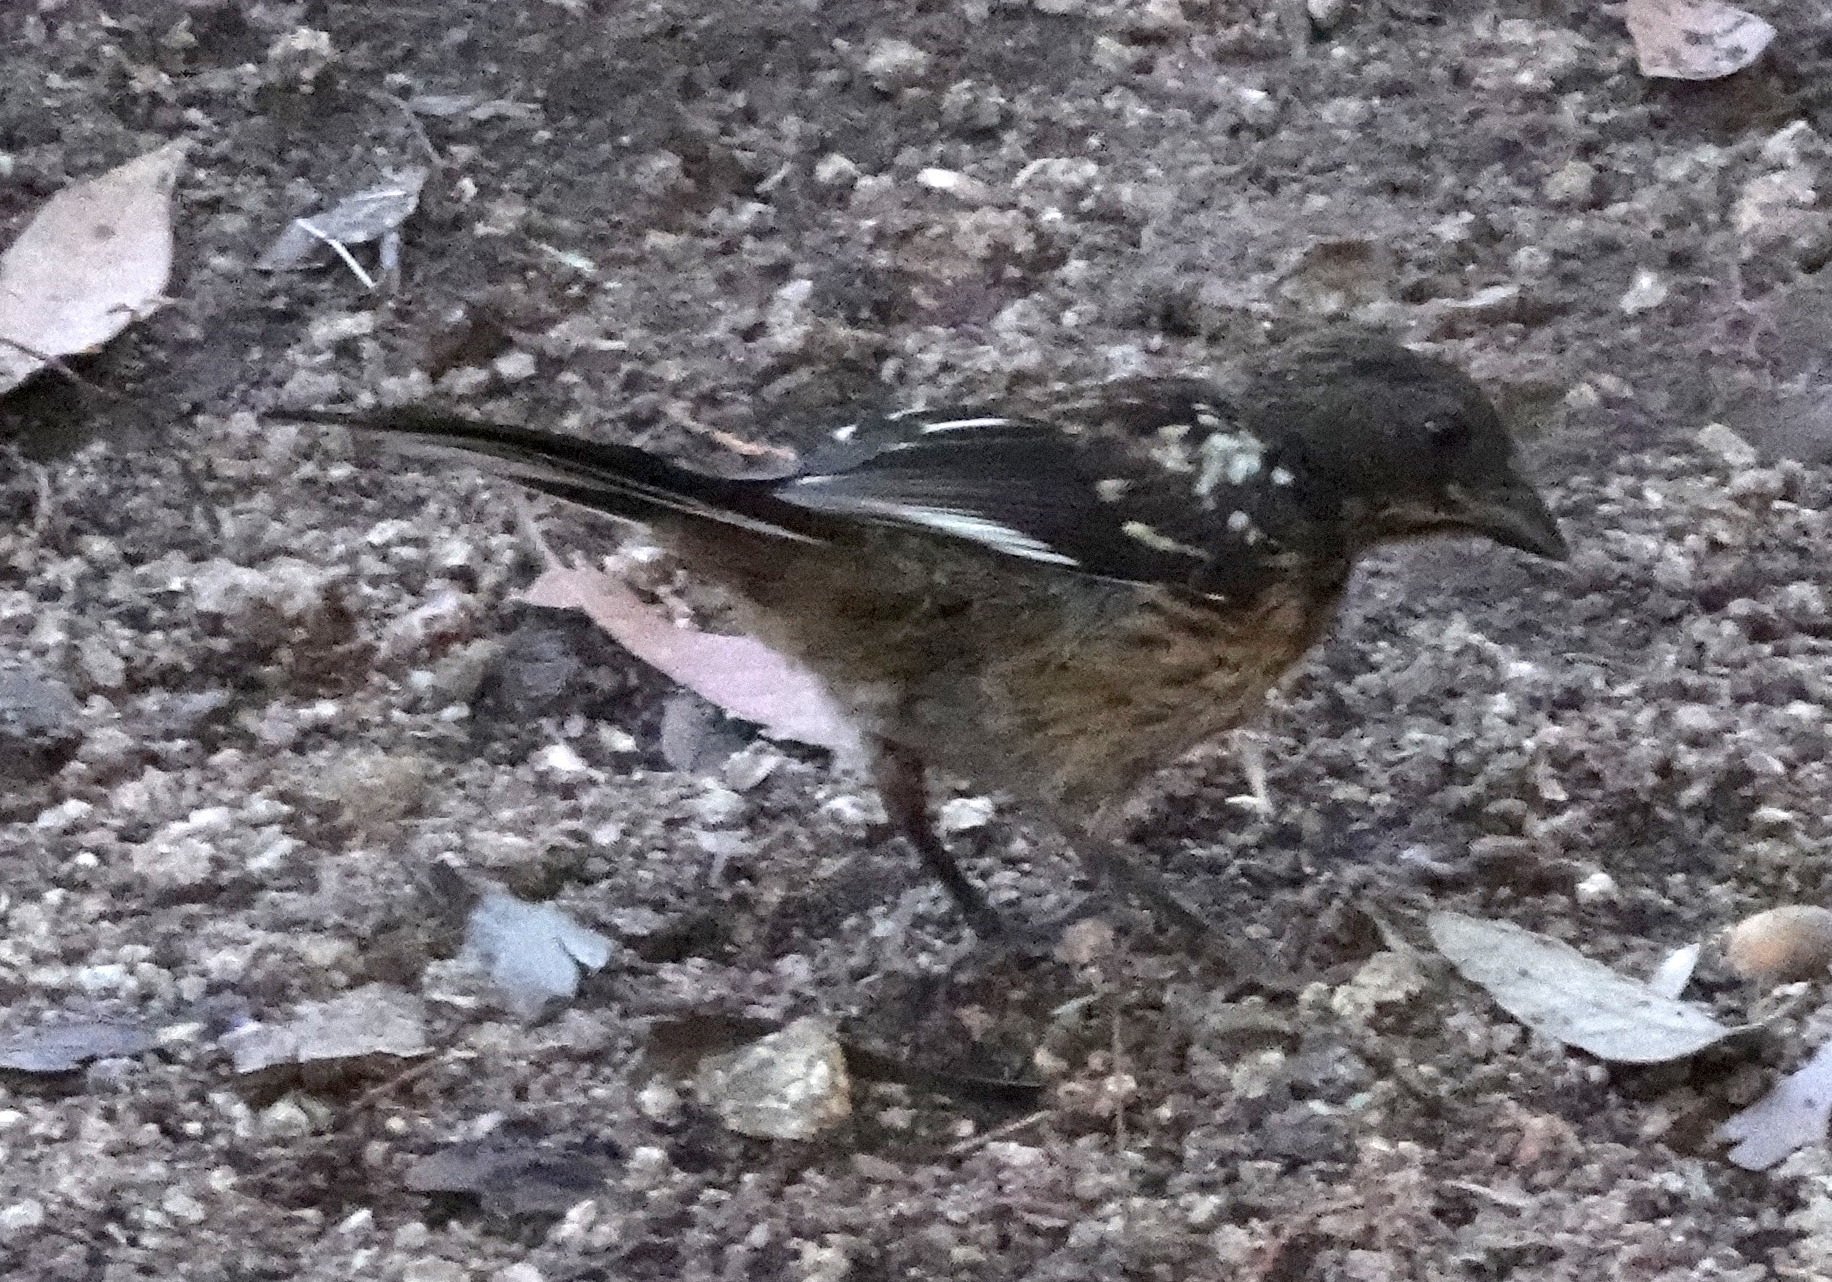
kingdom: Animalia
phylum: Chordata
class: Aves
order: Passeriformes
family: Passerellidae
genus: Pipilo
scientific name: Pipilo maculatus
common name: Spotted towhee
